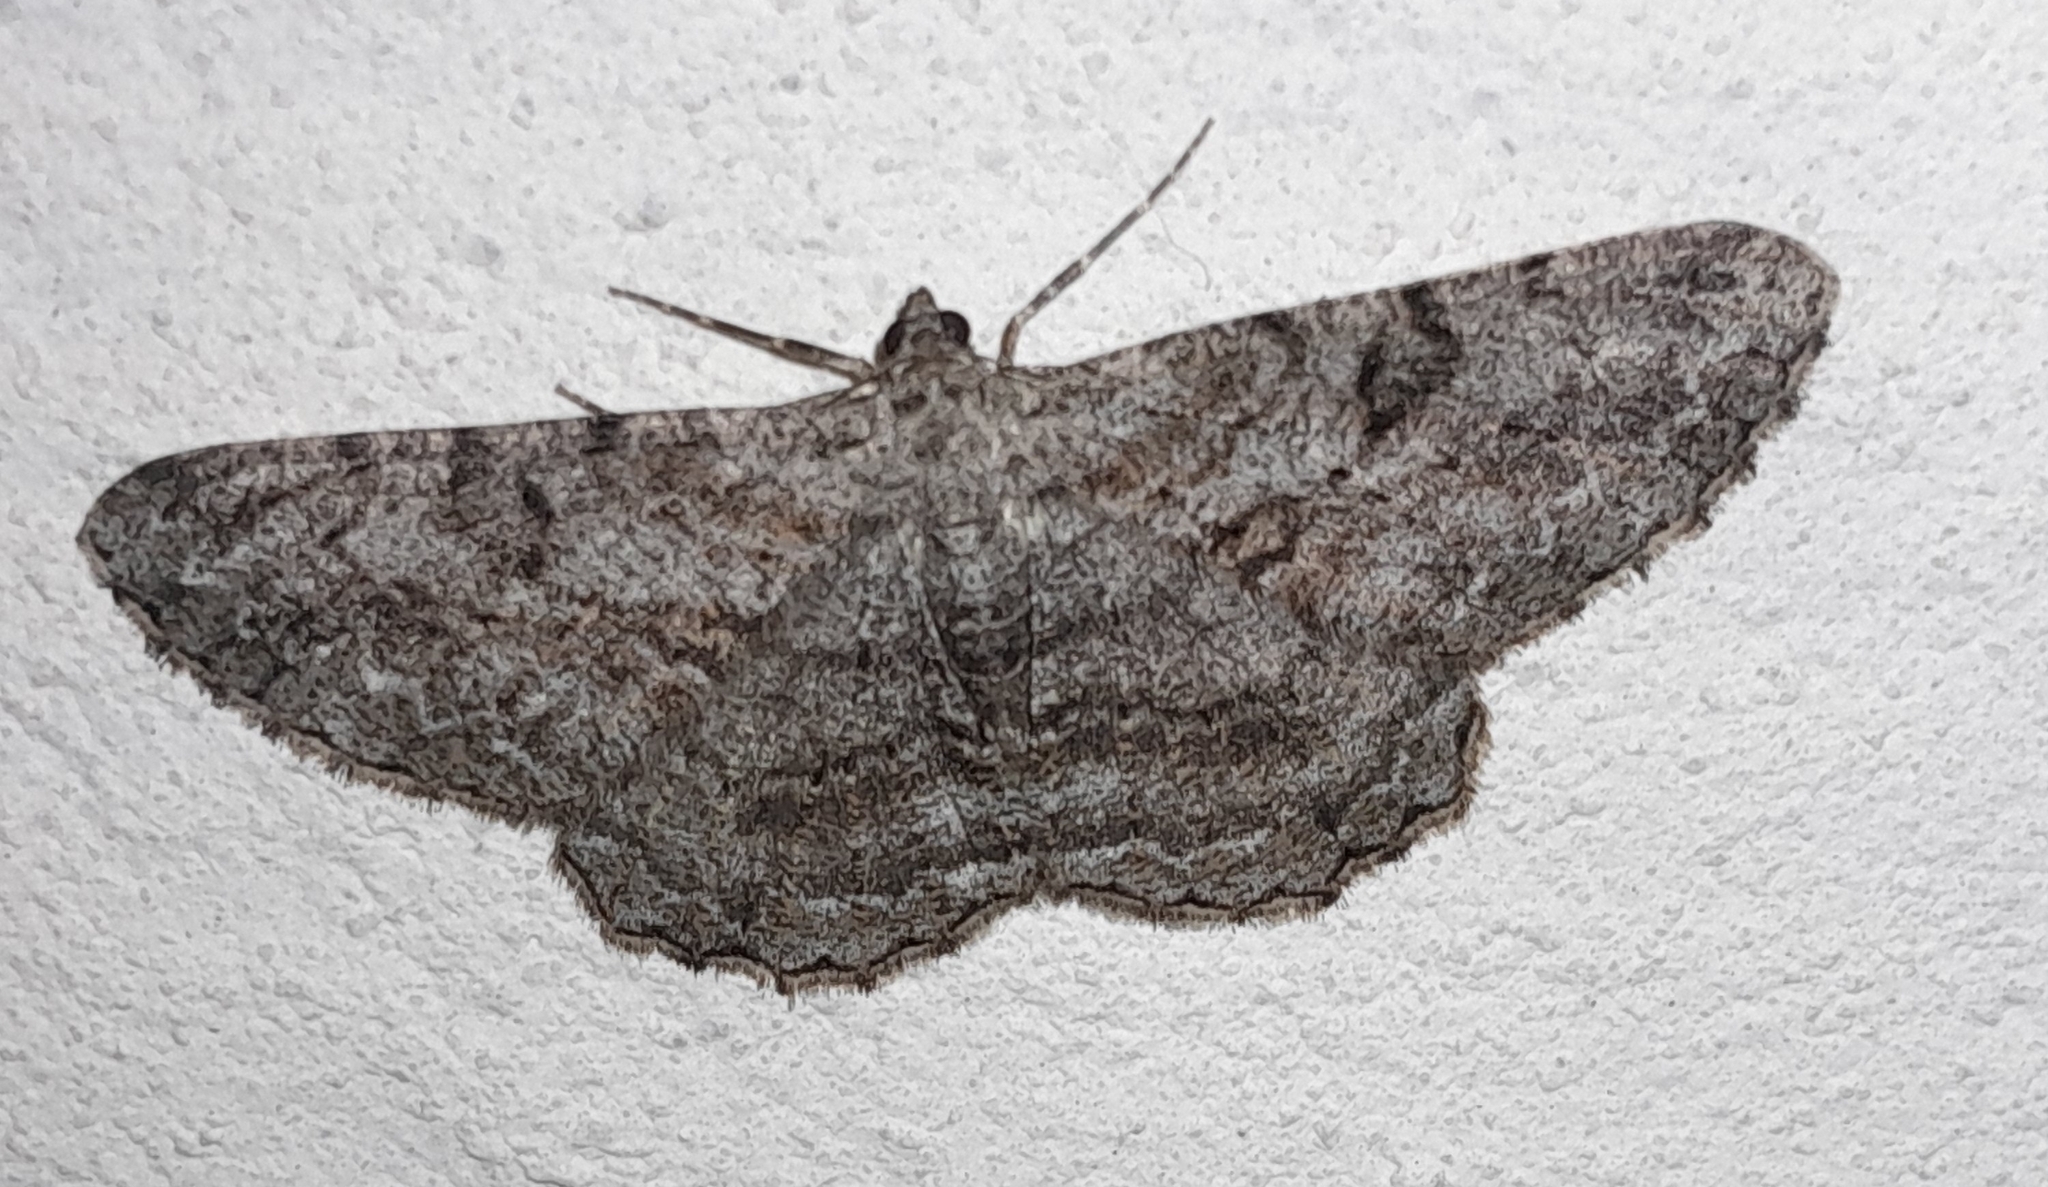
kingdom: Animalia
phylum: Arthropoda
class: Insecta
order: Lepidoptera
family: Geometridae
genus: Peribatodes
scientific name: Peribatodes rhomboidaria
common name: Willow beauty
